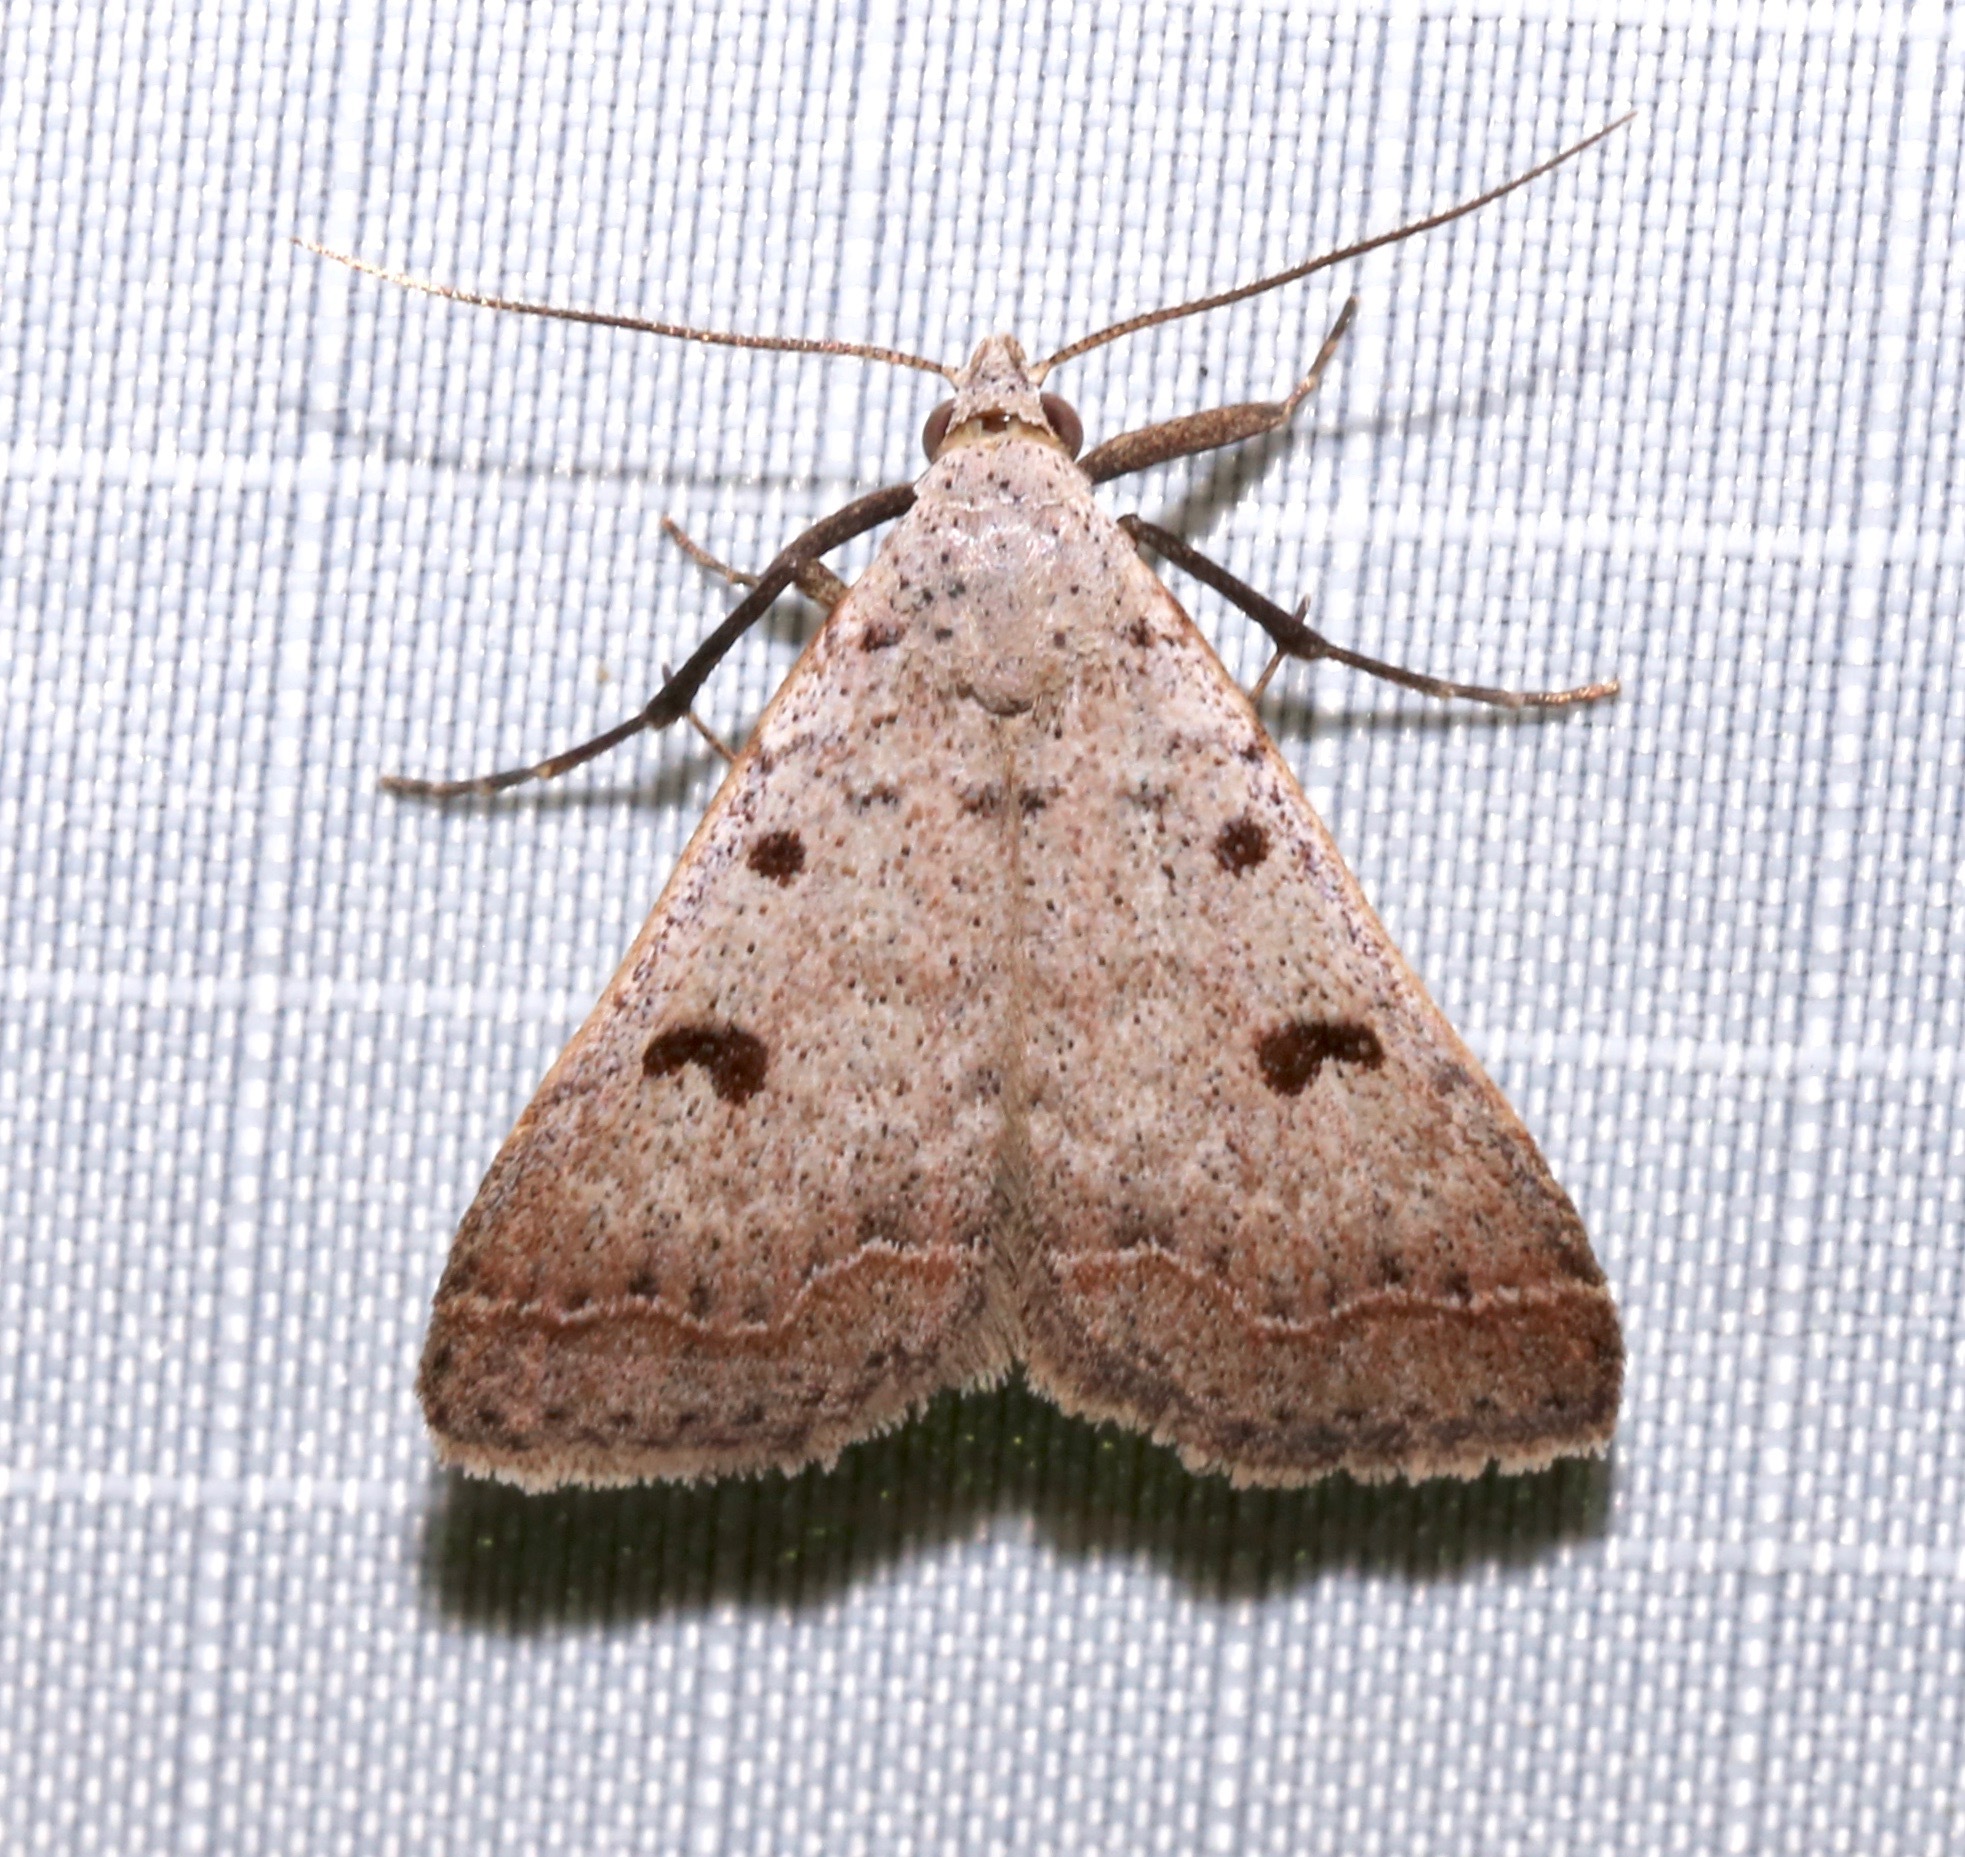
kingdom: Animalia
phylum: Arthropoda
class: Insecta
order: Lepidoptera
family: Erebidae
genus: Bleptina
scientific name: Bleptina caradrinalis
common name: Bent-winged owlet
